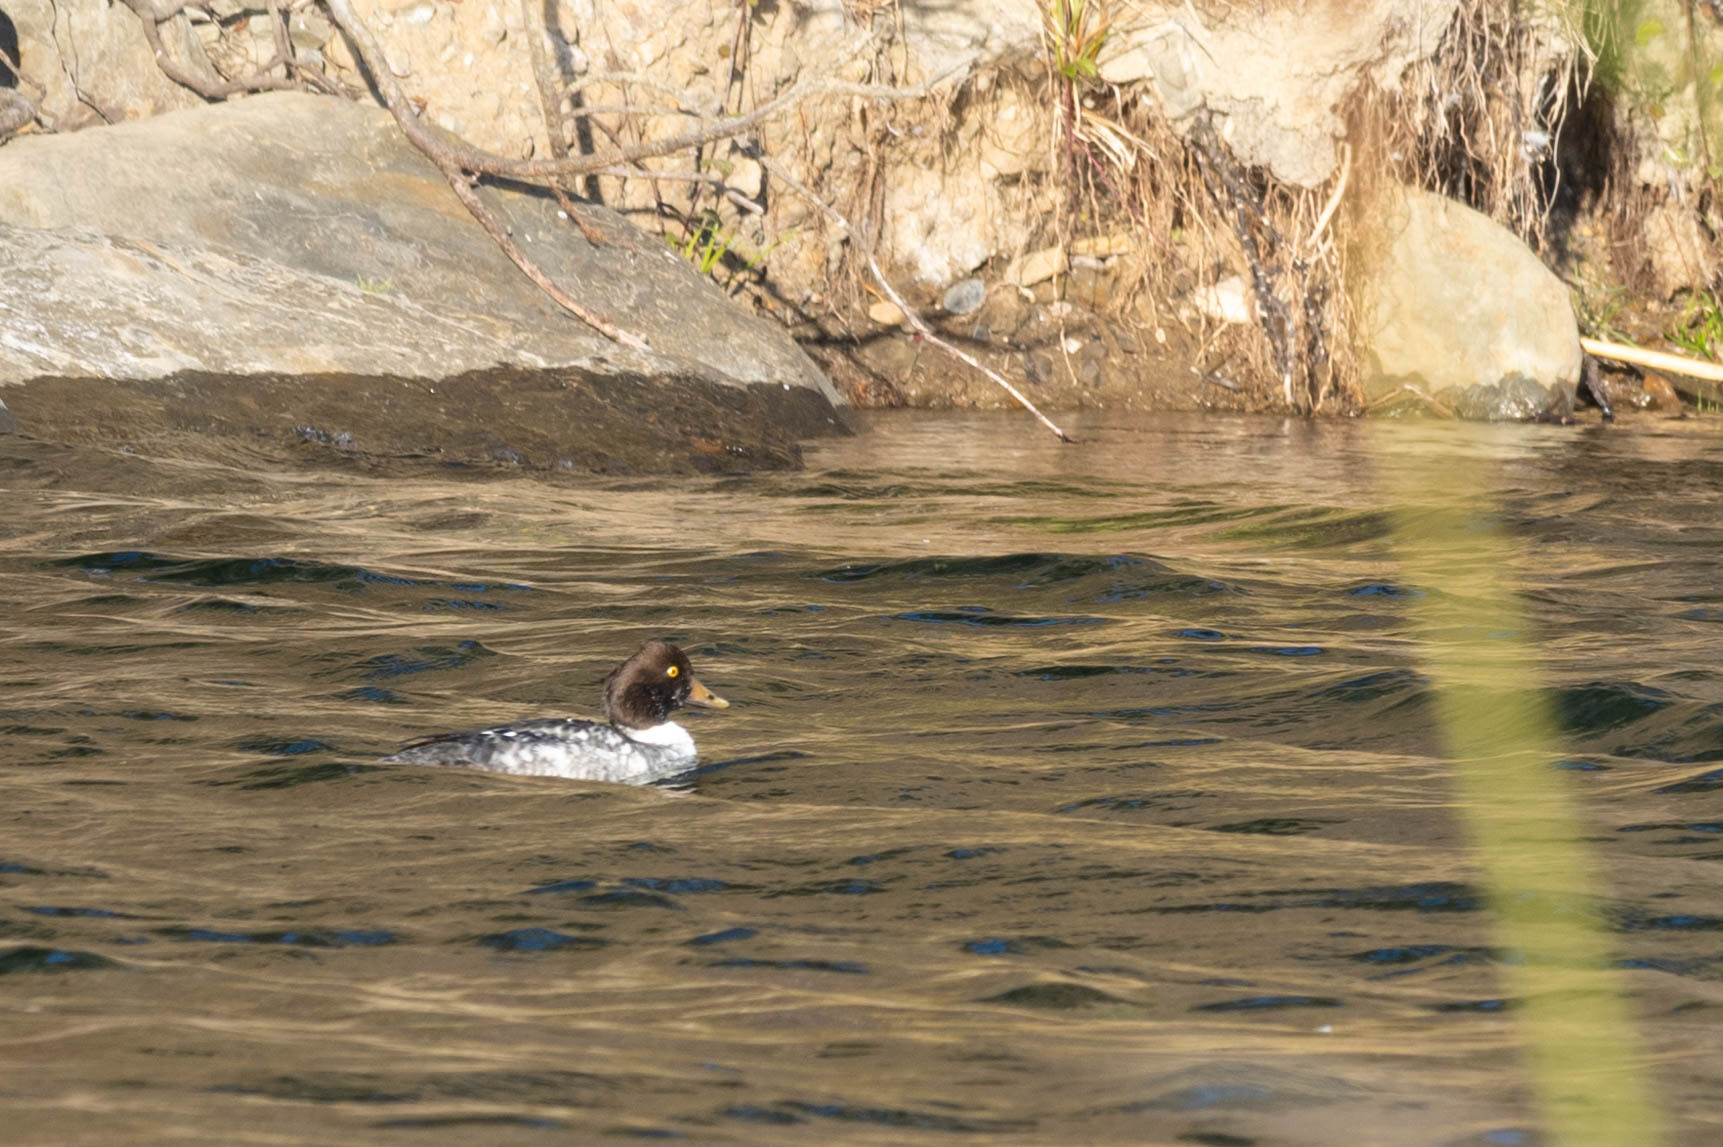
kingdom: Animalia
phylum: Chordata
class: Aves
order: Anseriformes
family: Anatidae
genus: Bucephala
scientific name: Bucephala islandica
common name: Barrow's goldeneye
